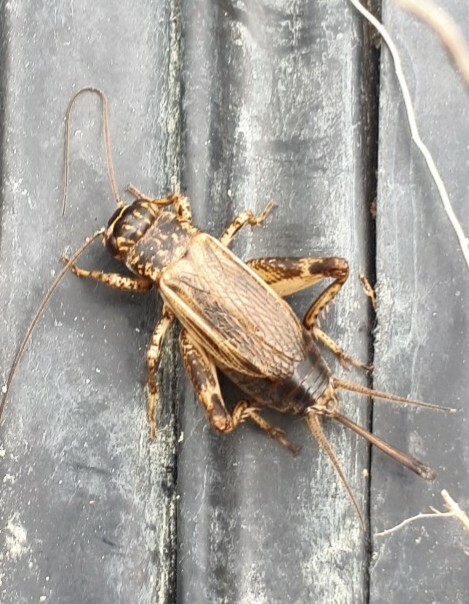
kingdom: Animalia
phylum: Arthropoda
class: Insecta
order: Orthoptera
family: Gryllidae
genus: Eumodicogryllus
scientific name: Eumodicogryllus bordigalensis
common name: Bordeaux cricket
